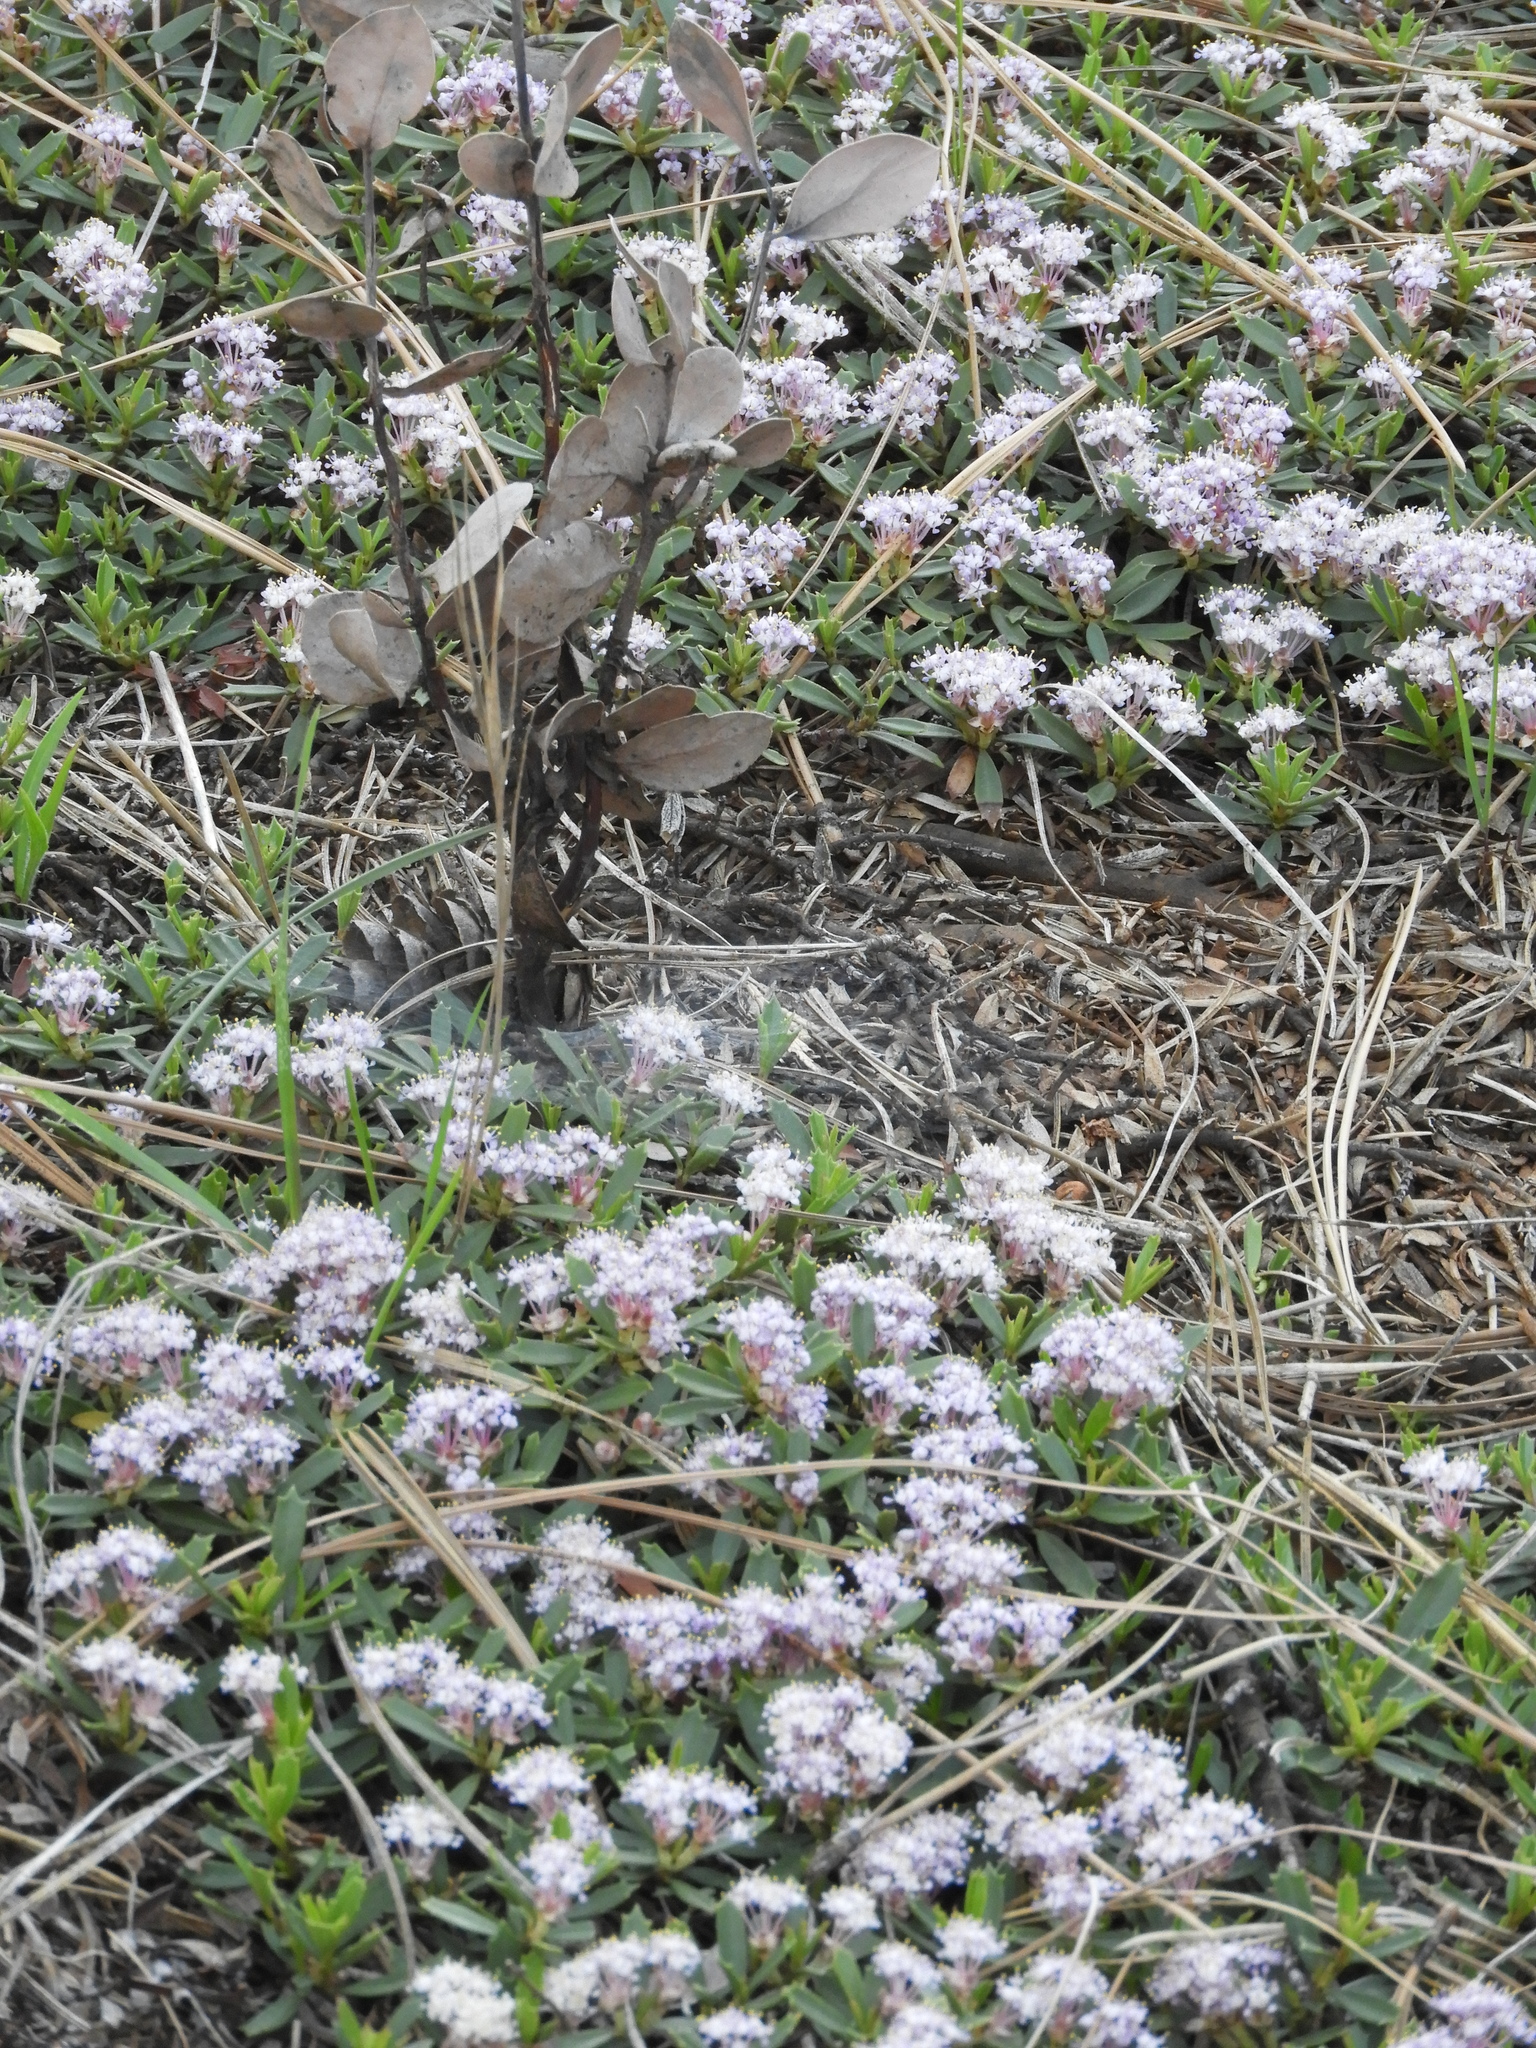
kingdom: Plantae
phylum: Tracheophyta
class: Magnoliopsida
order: Rosales
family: Rhamnaceae
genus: Ceanothus
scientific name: Ceanothus prostratus
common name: Mahala-mat
